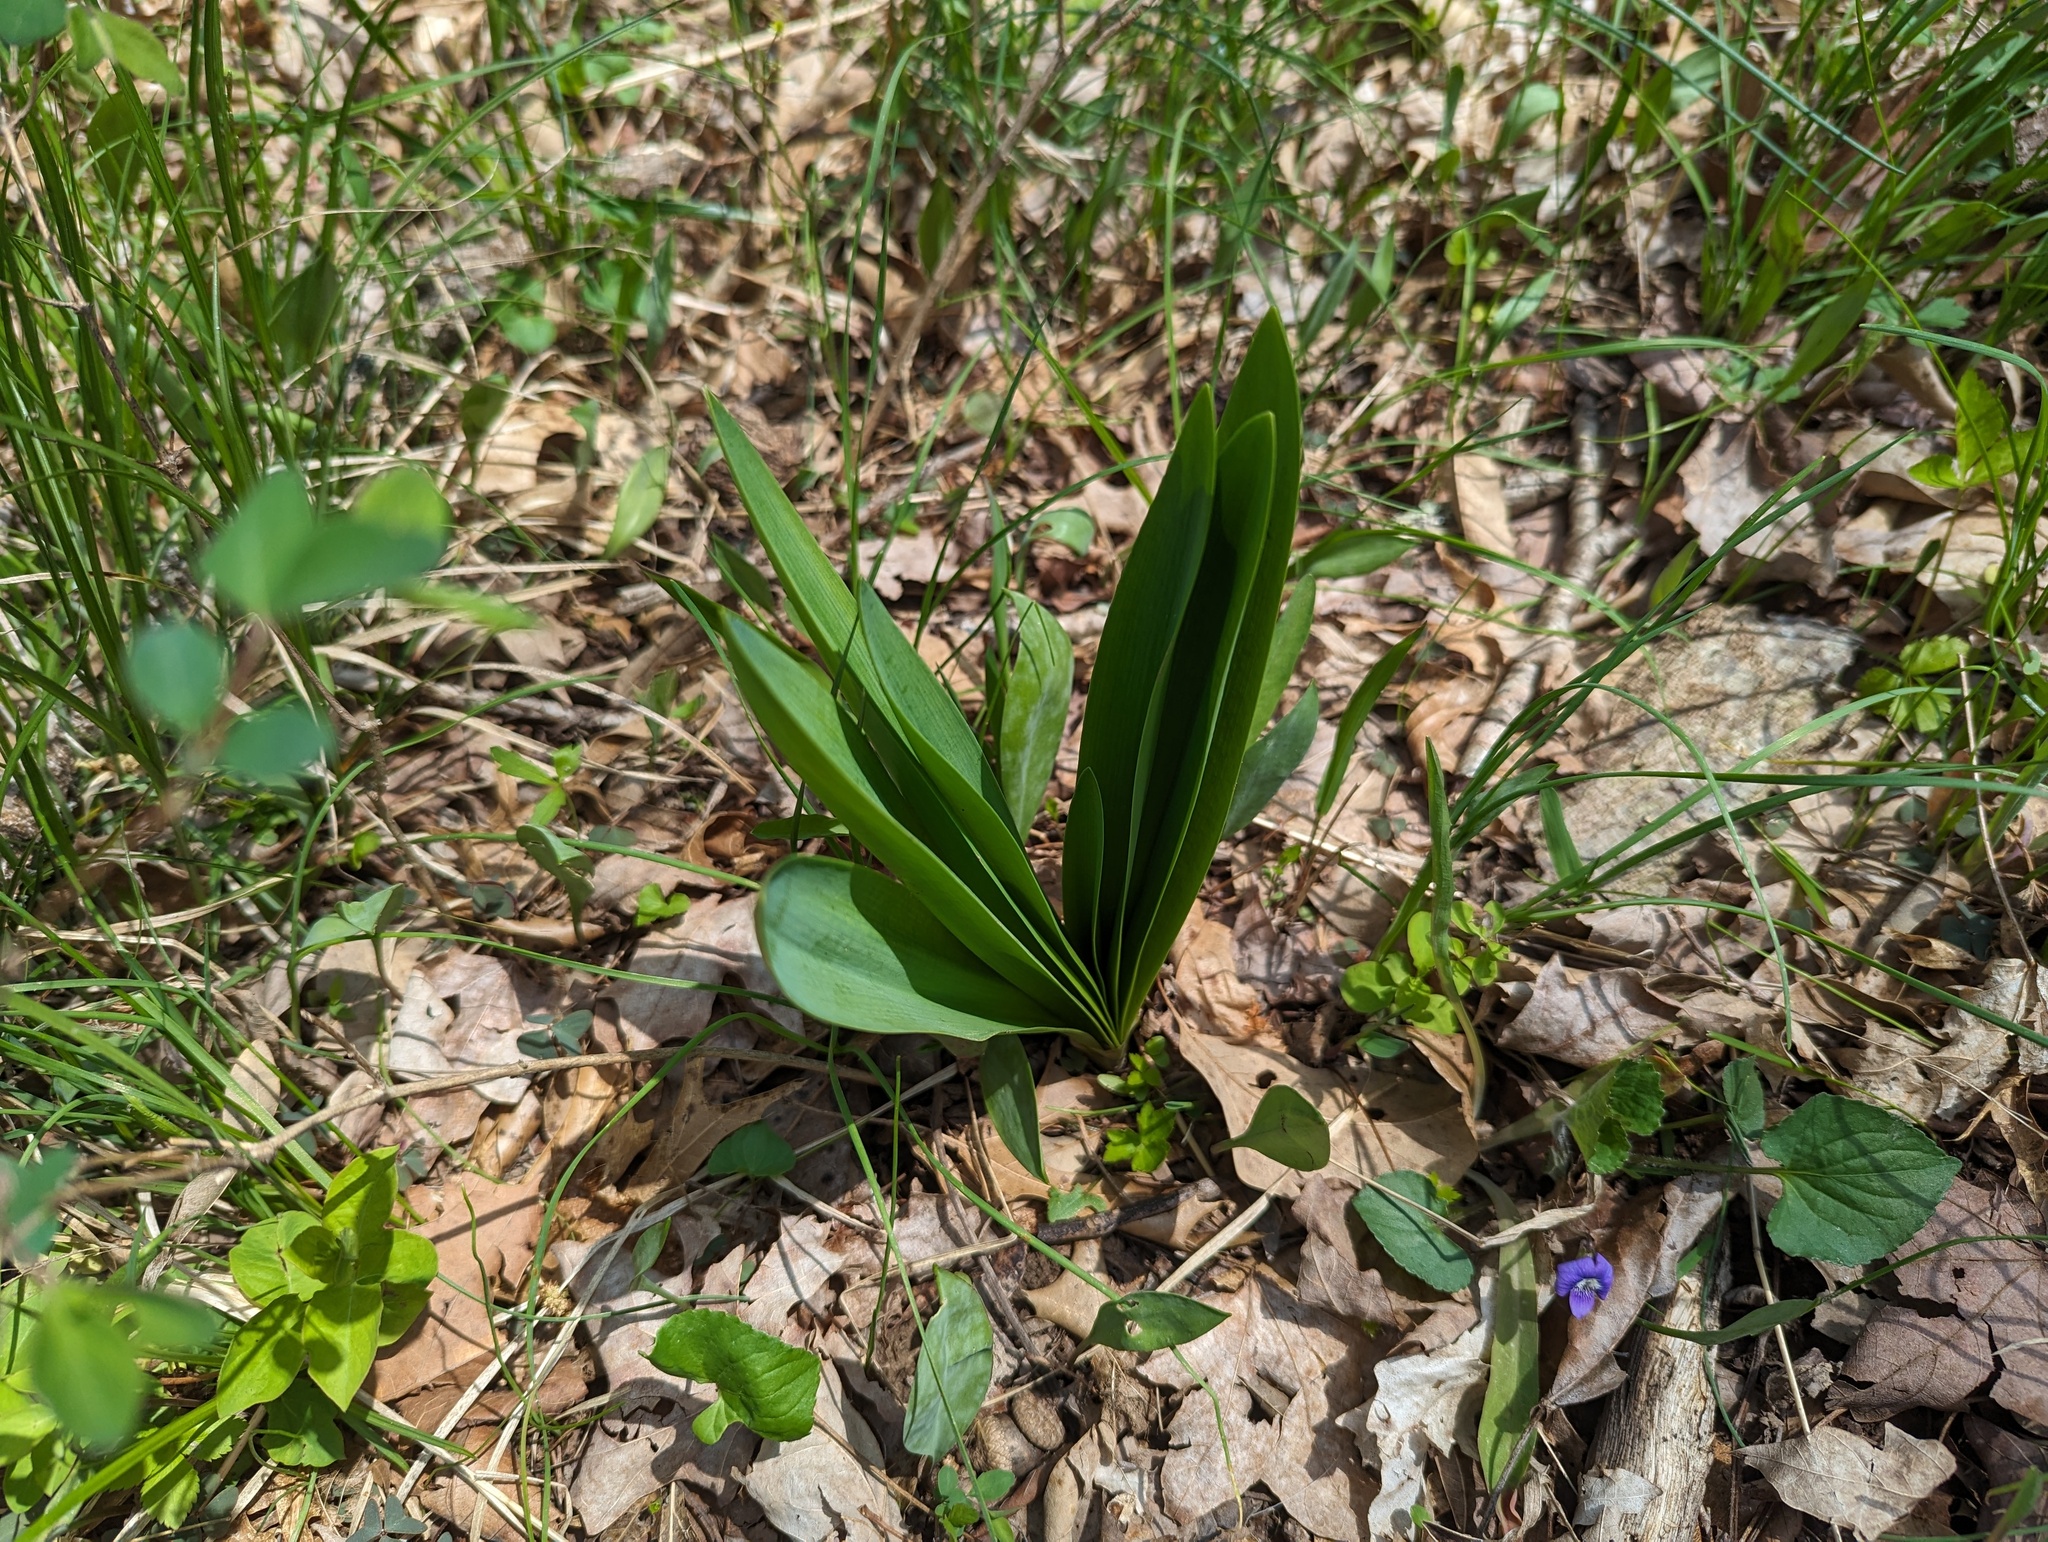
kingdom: Plantae
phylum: Tracheophyta
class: Liliopsida
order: Asparagales
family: Amaryllidaceae
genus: Hymenocallis
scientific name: Hymenocallis occidentalis
